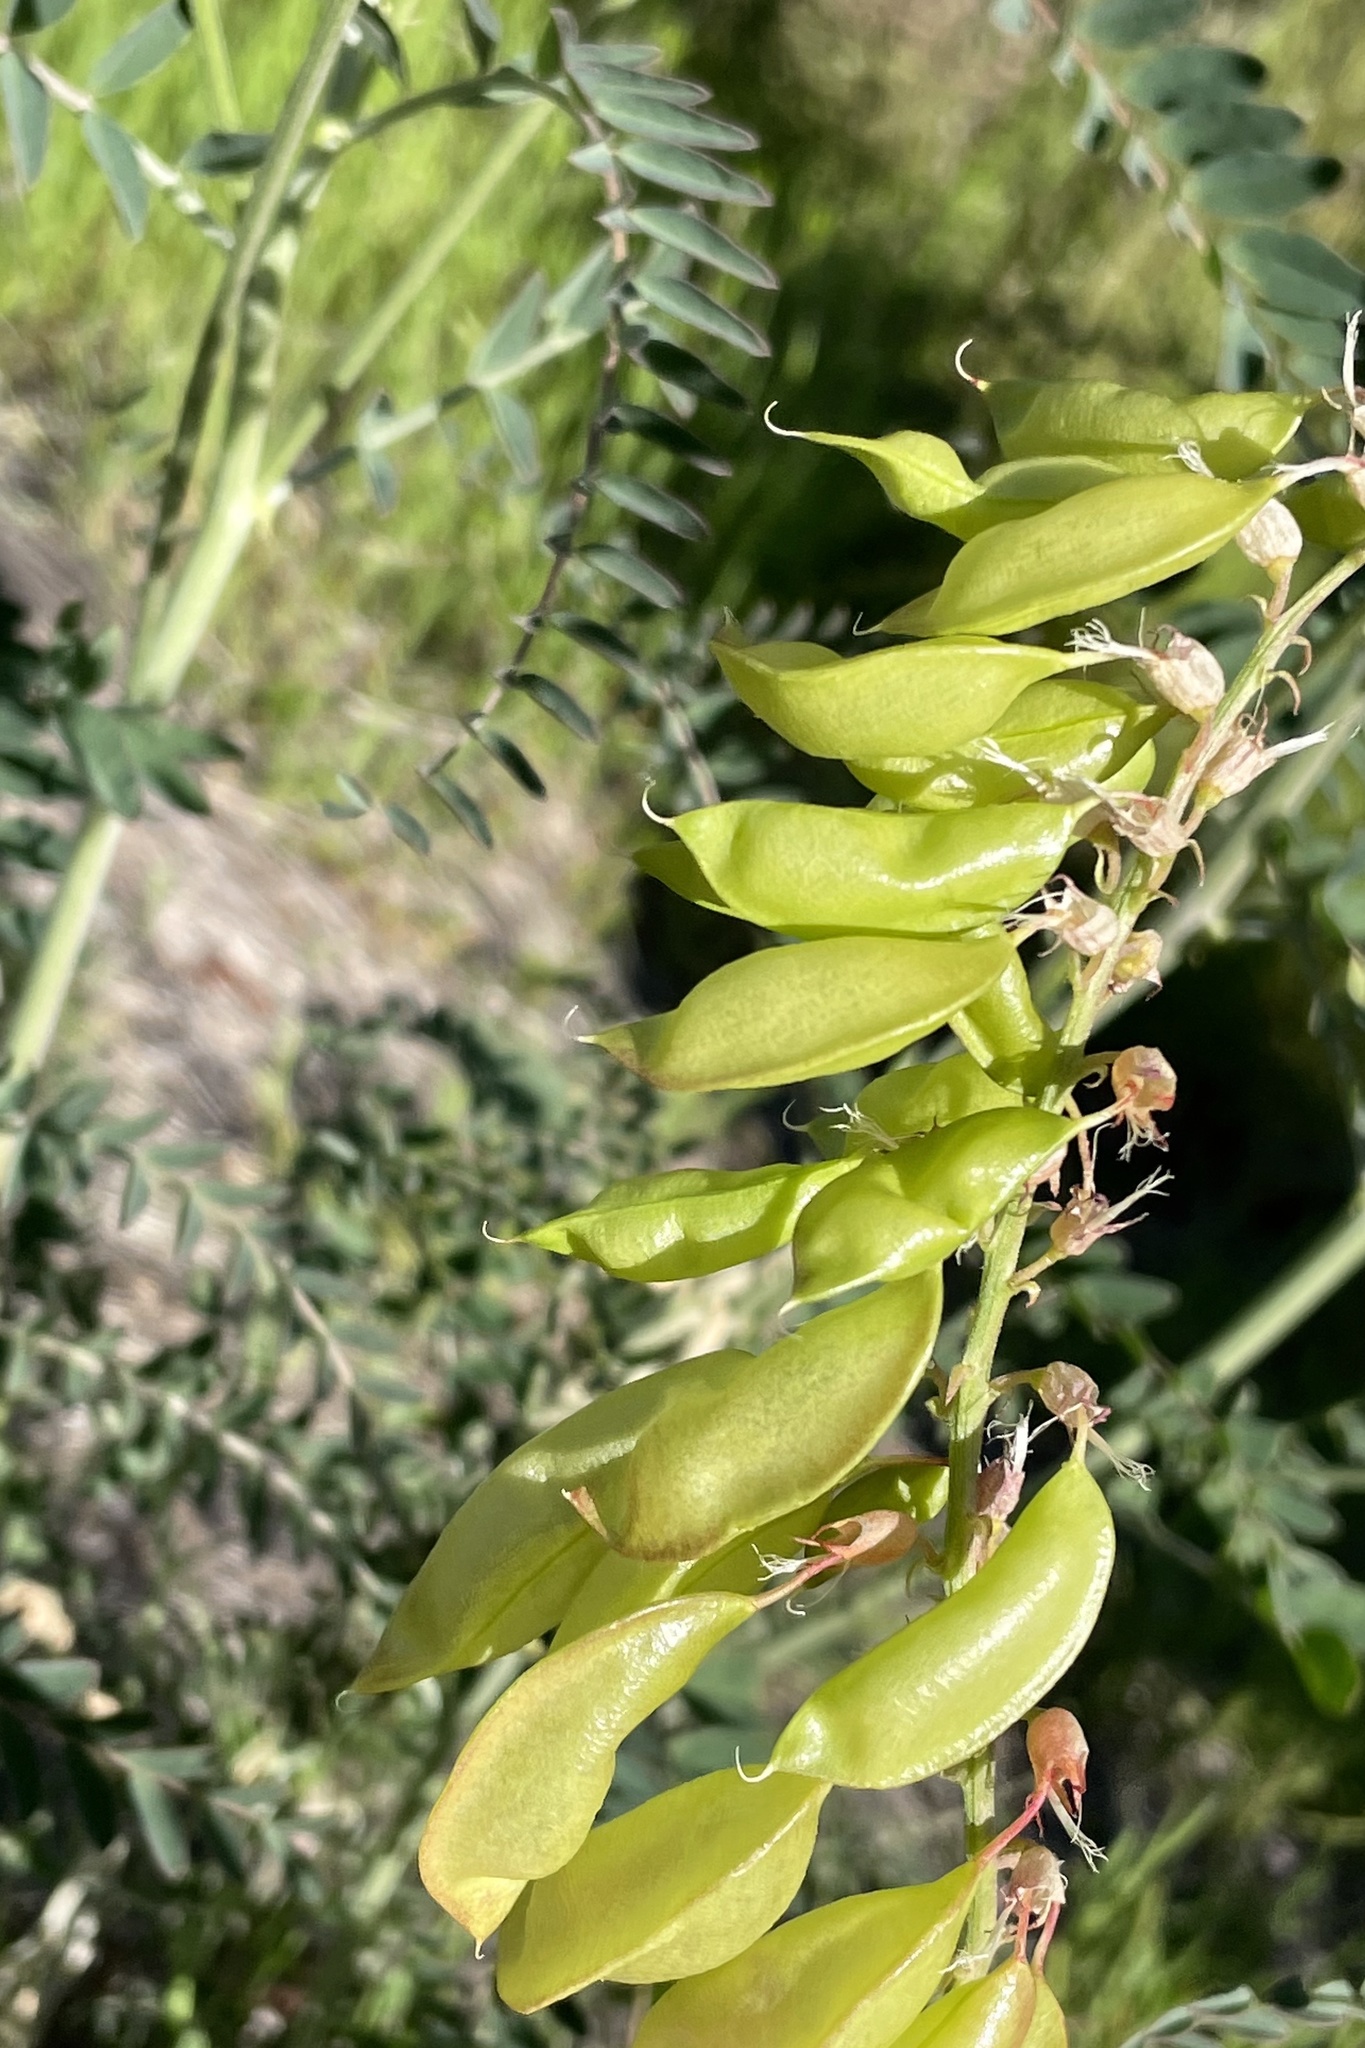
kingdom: Plantae
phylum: Tracheophyta
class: Magnoliopsida
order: Fabales
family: Fabaceae
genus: Astragalus
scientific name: Astragalus trichopodus
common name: Santa barbara milk-vetch
